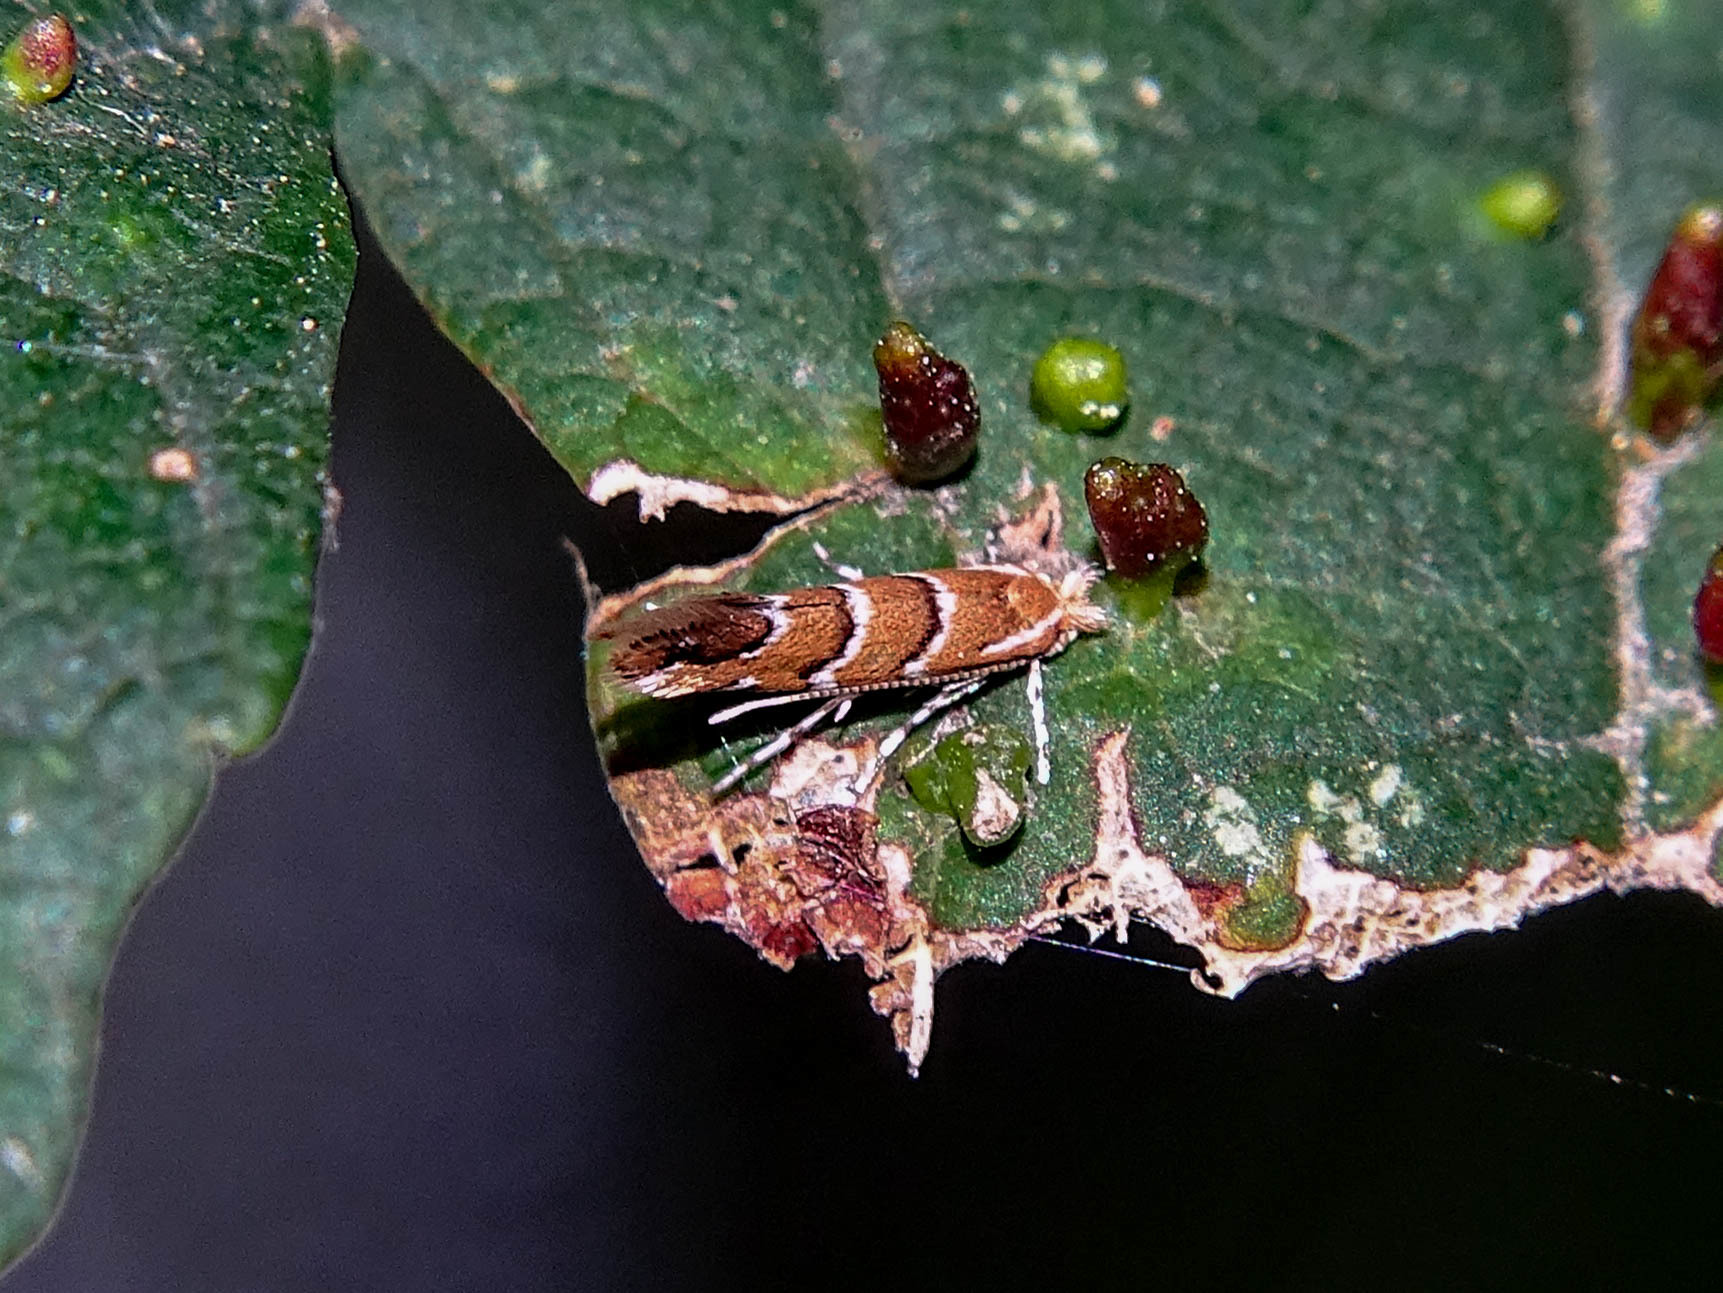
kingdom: Animalia
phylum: Arthropoda
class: Insecta
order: Lepidoptera
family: Gracillariidae
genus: Cameraria
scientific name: Cameraria ohridella
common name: Horse-chestnut leaf-miner
